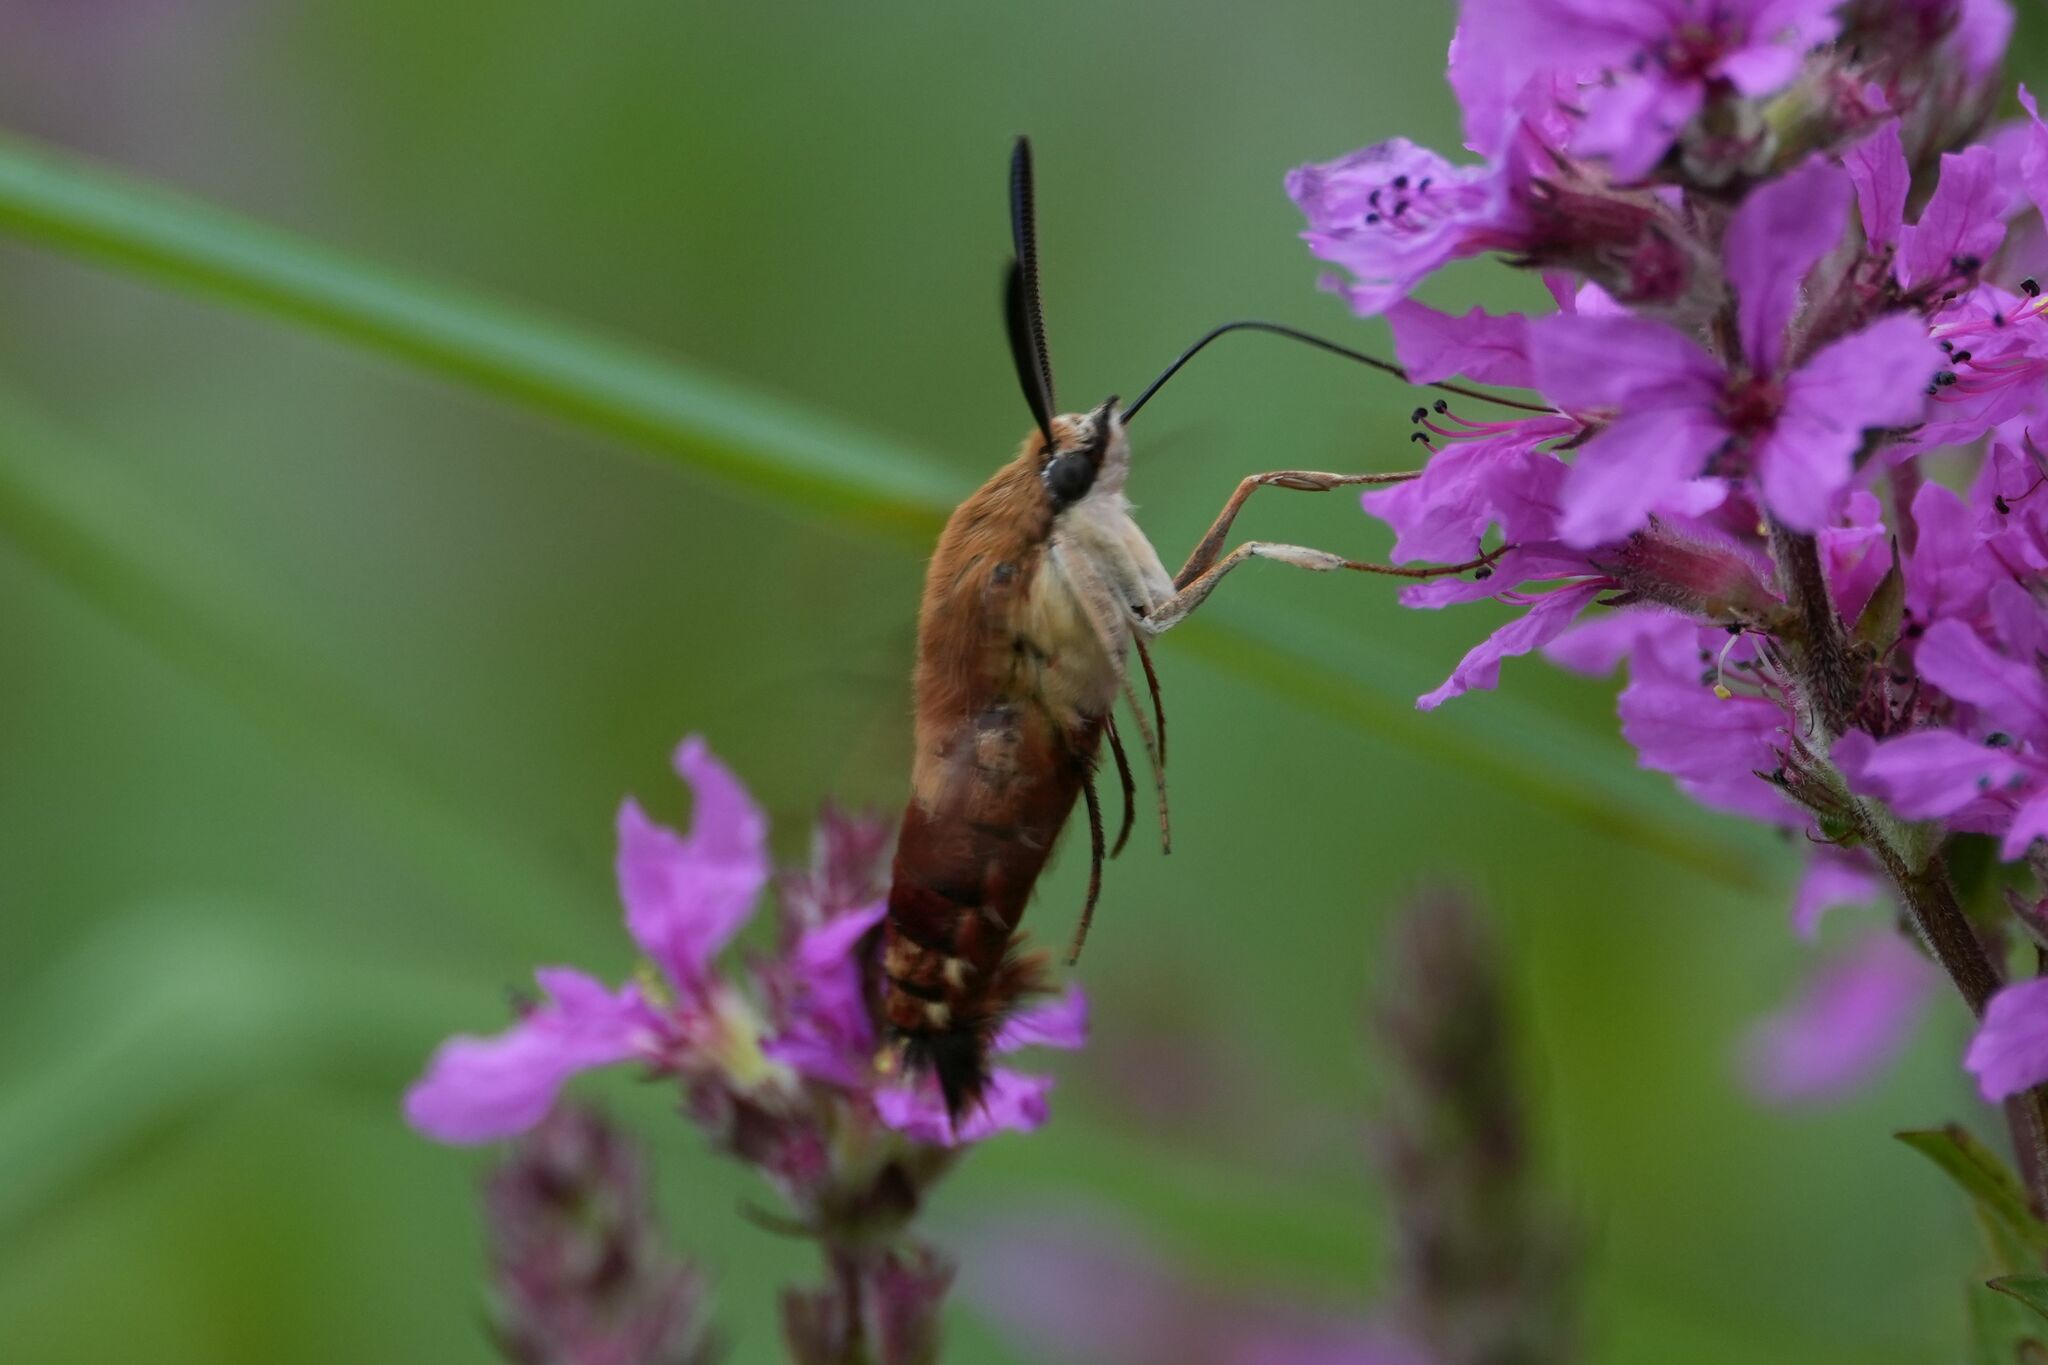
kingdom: Animalia
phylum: Arthropoda
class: Insecta
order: Lepidoptera
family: Sphingidae
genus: Hemaris
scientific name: Hemaris thysbe
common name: Common clear-wing
